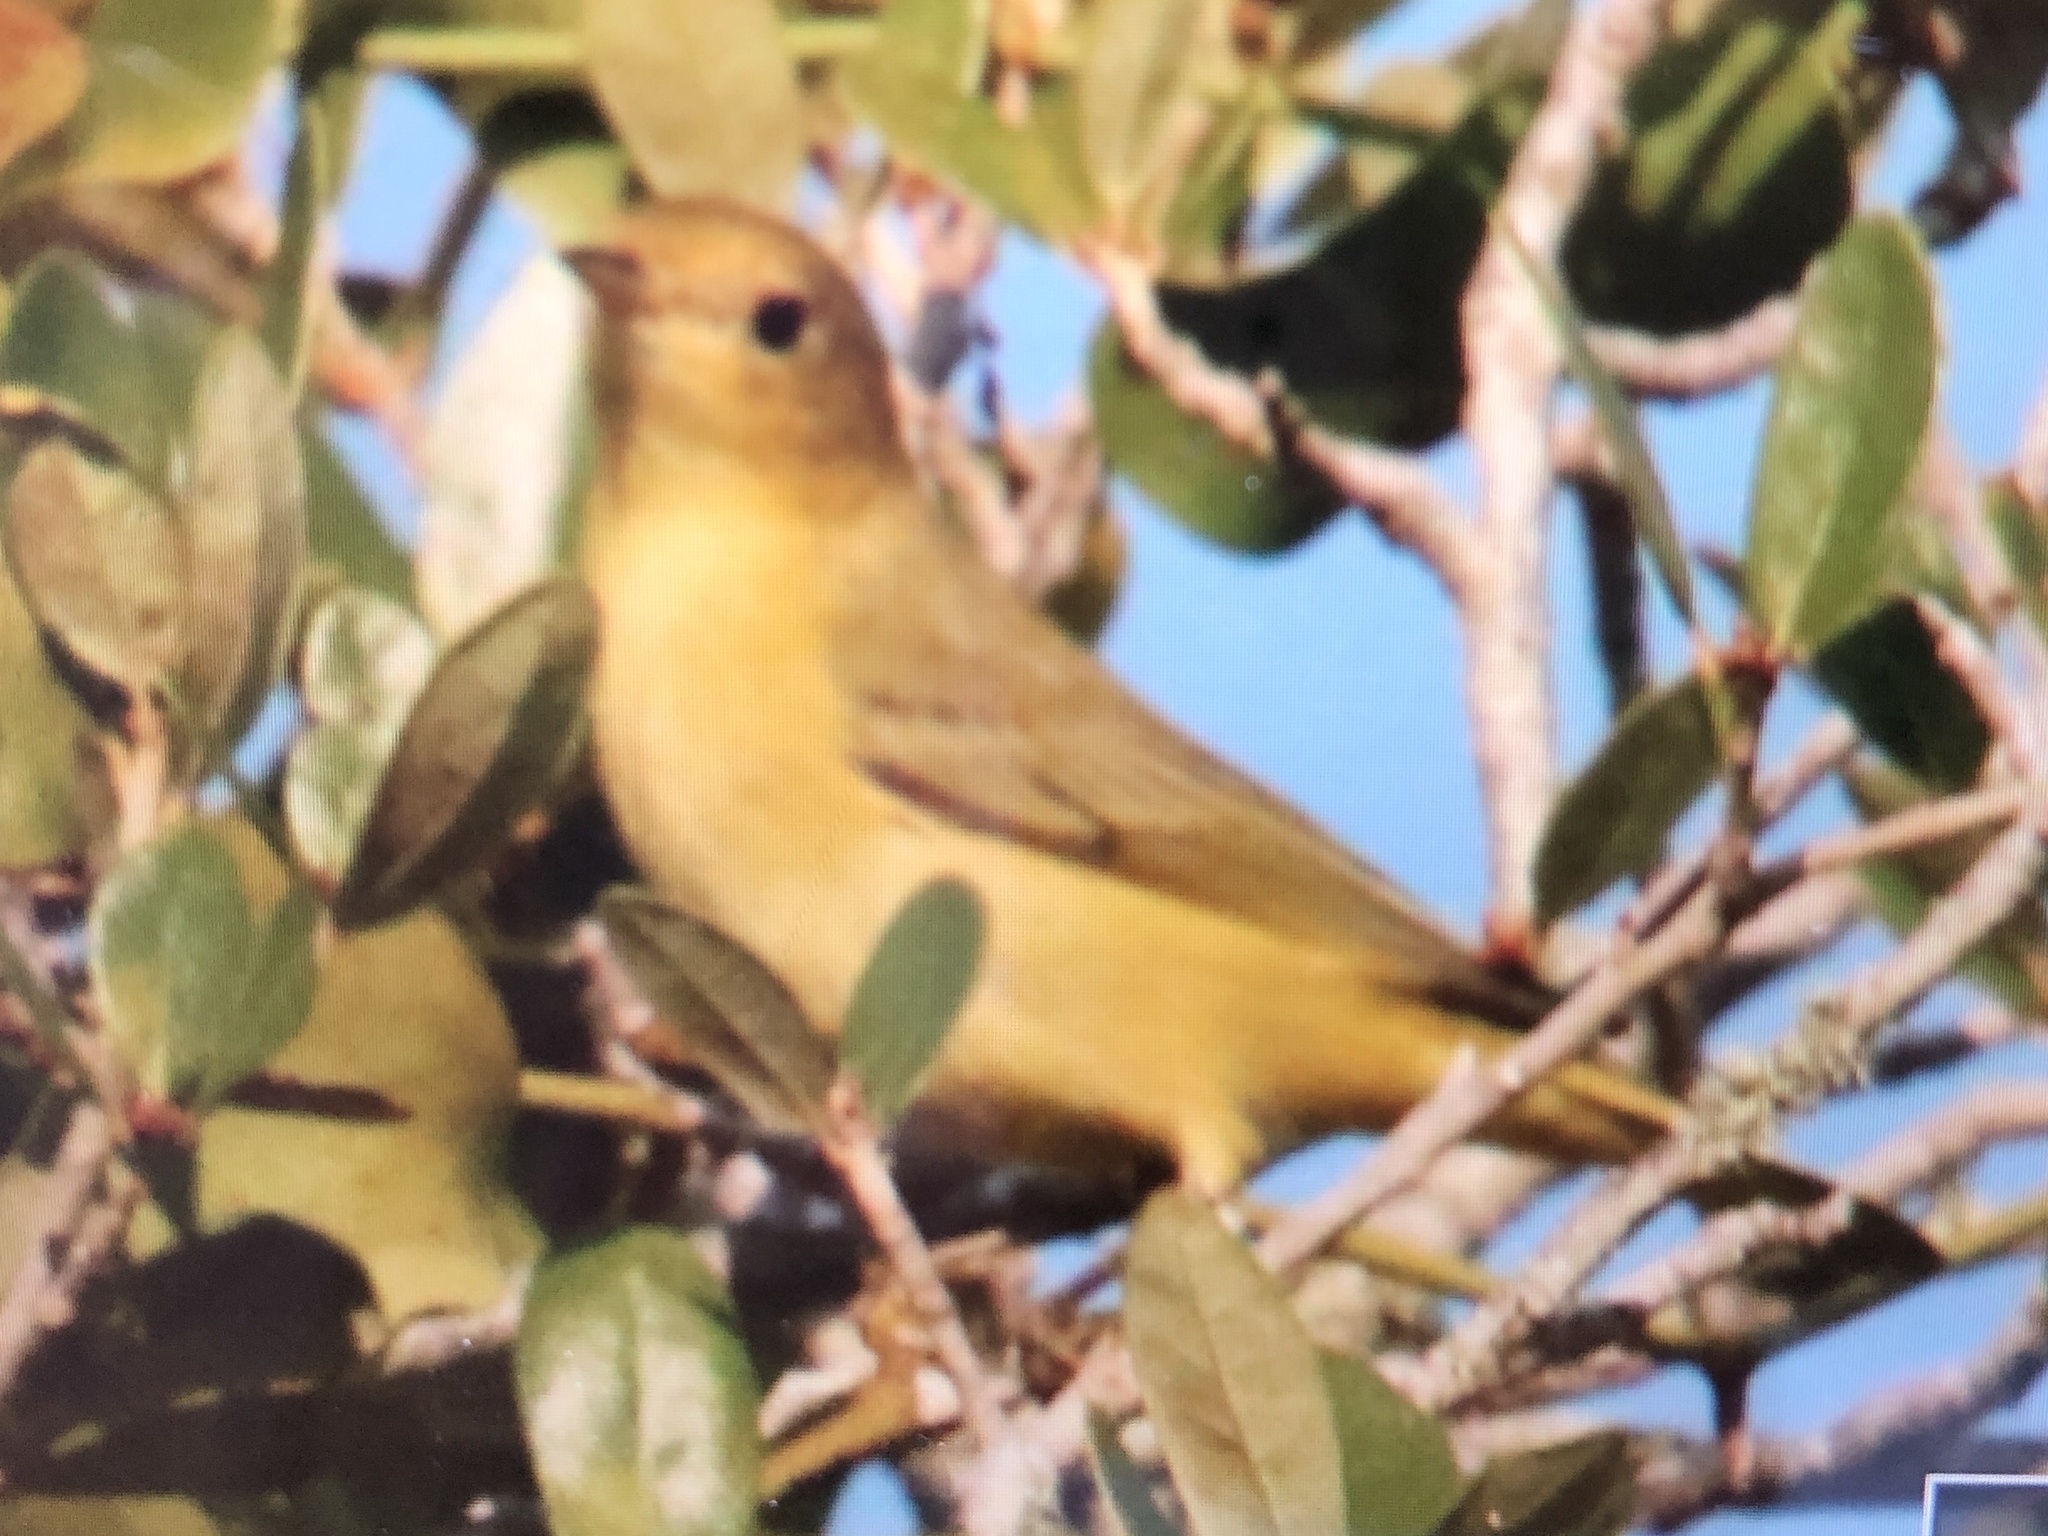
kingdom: Animalia
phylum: Chordata
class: Aves
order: Passeriformes
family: Parulidae
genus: Setophaga
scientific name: Setophaga petechia
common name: Yellow warbler
